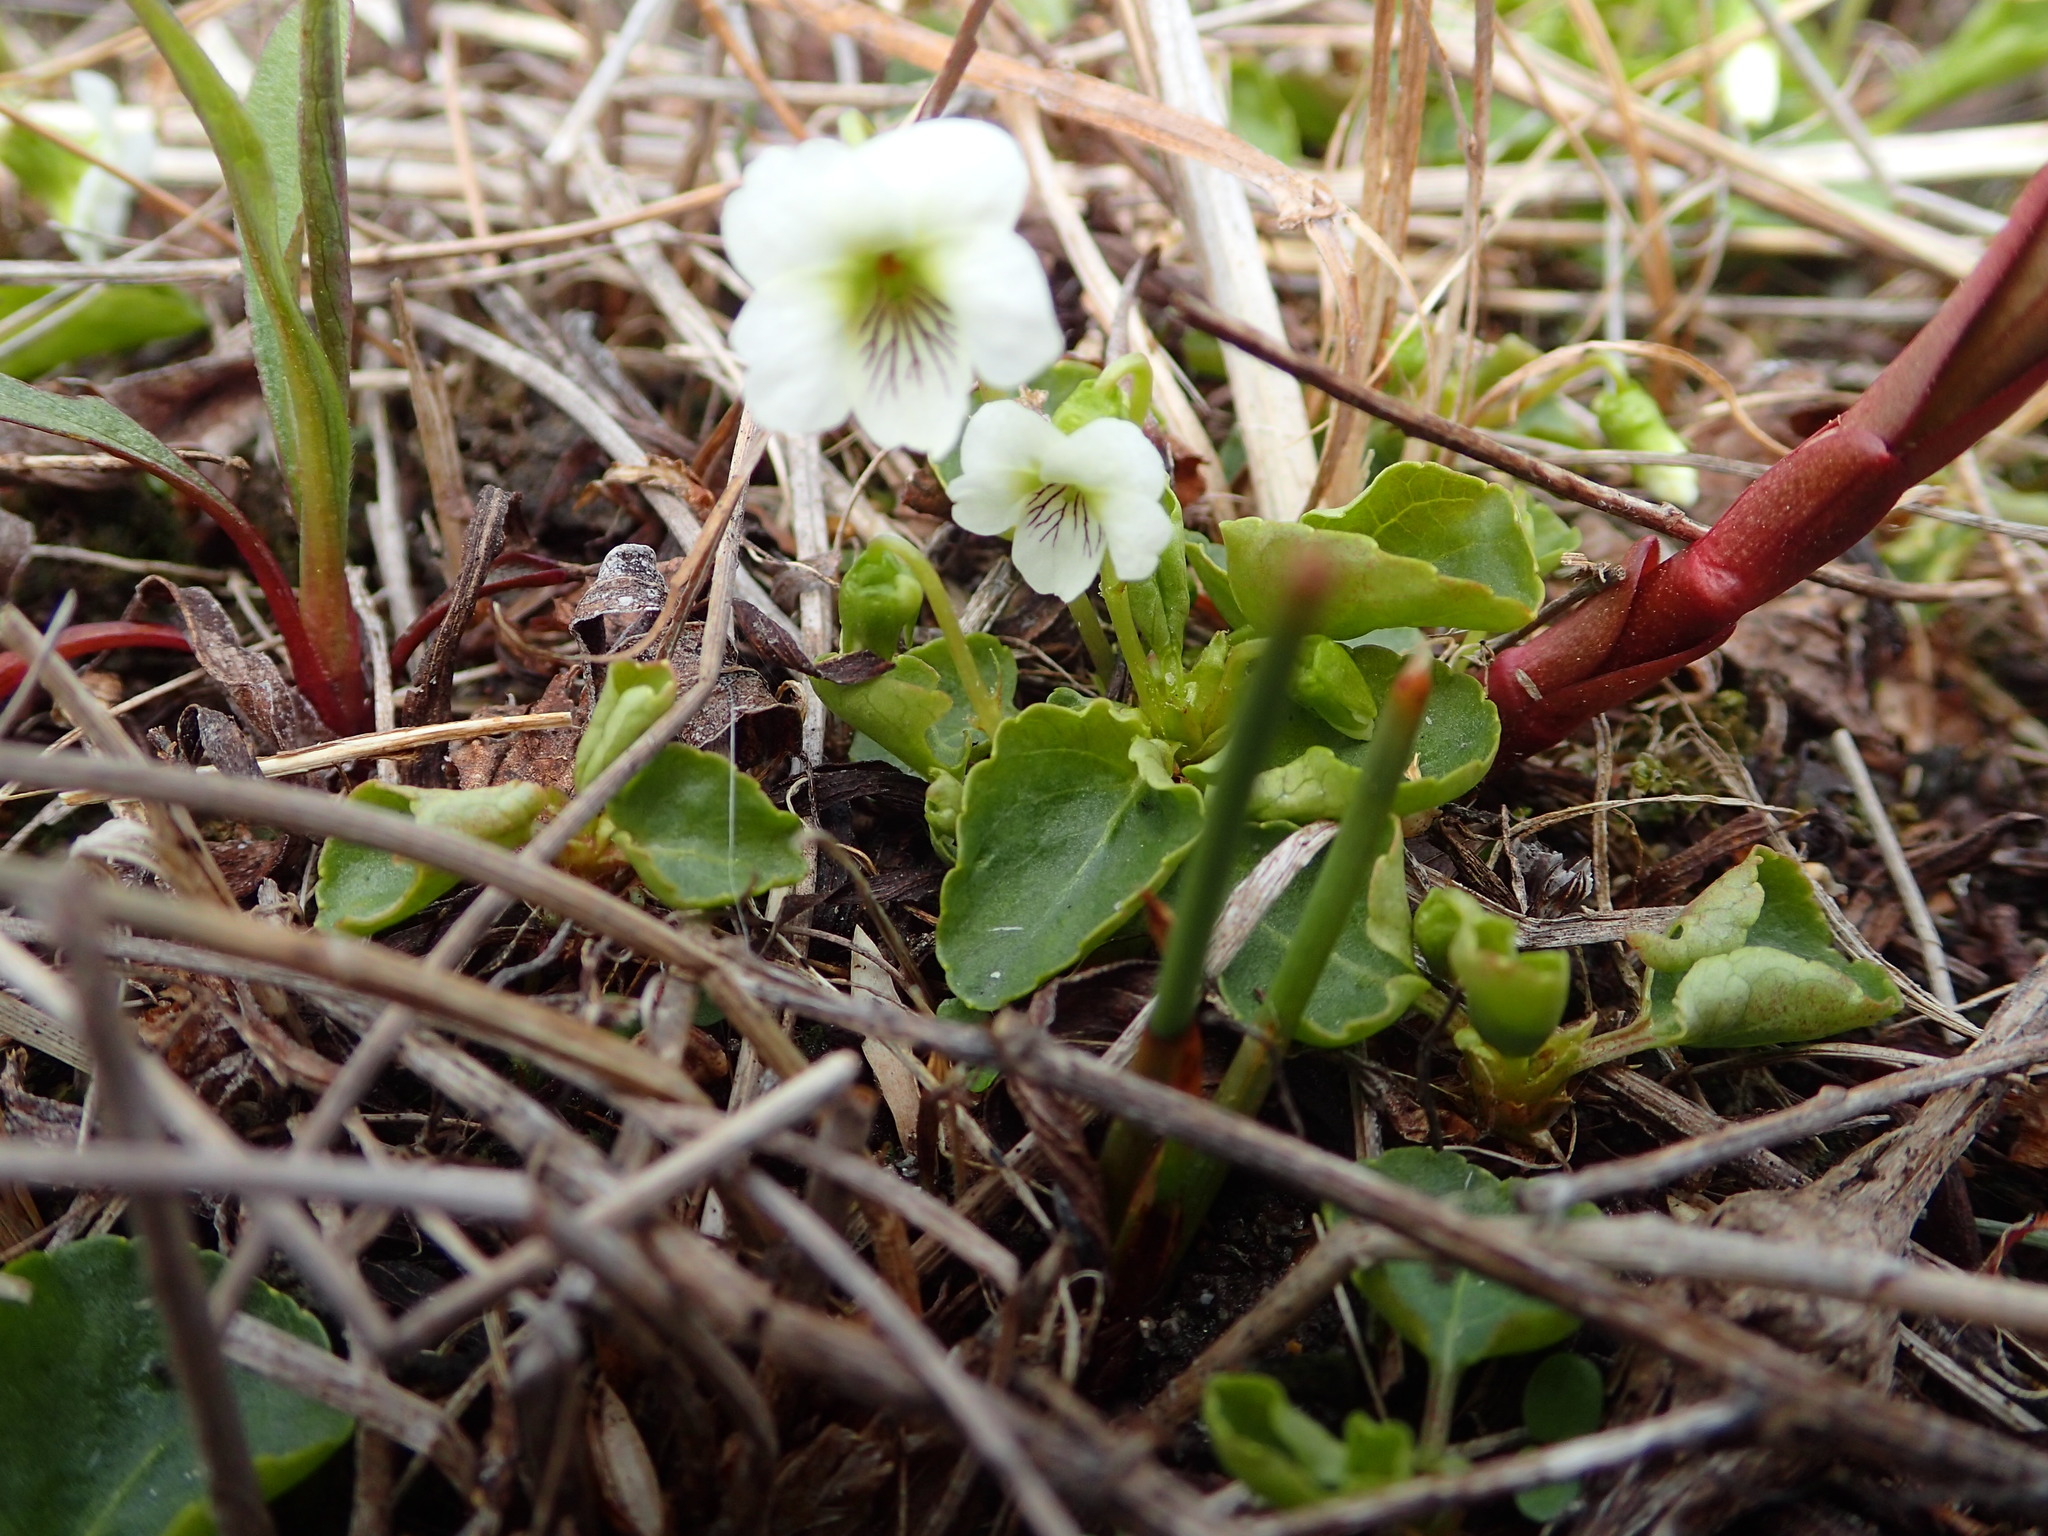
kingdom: Plantae
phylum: Tracheophyta
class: Magnoliopsida
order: Malpighiales
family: Violaceae
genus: Viola
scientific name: Viola minuscula
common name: Northern white violet
